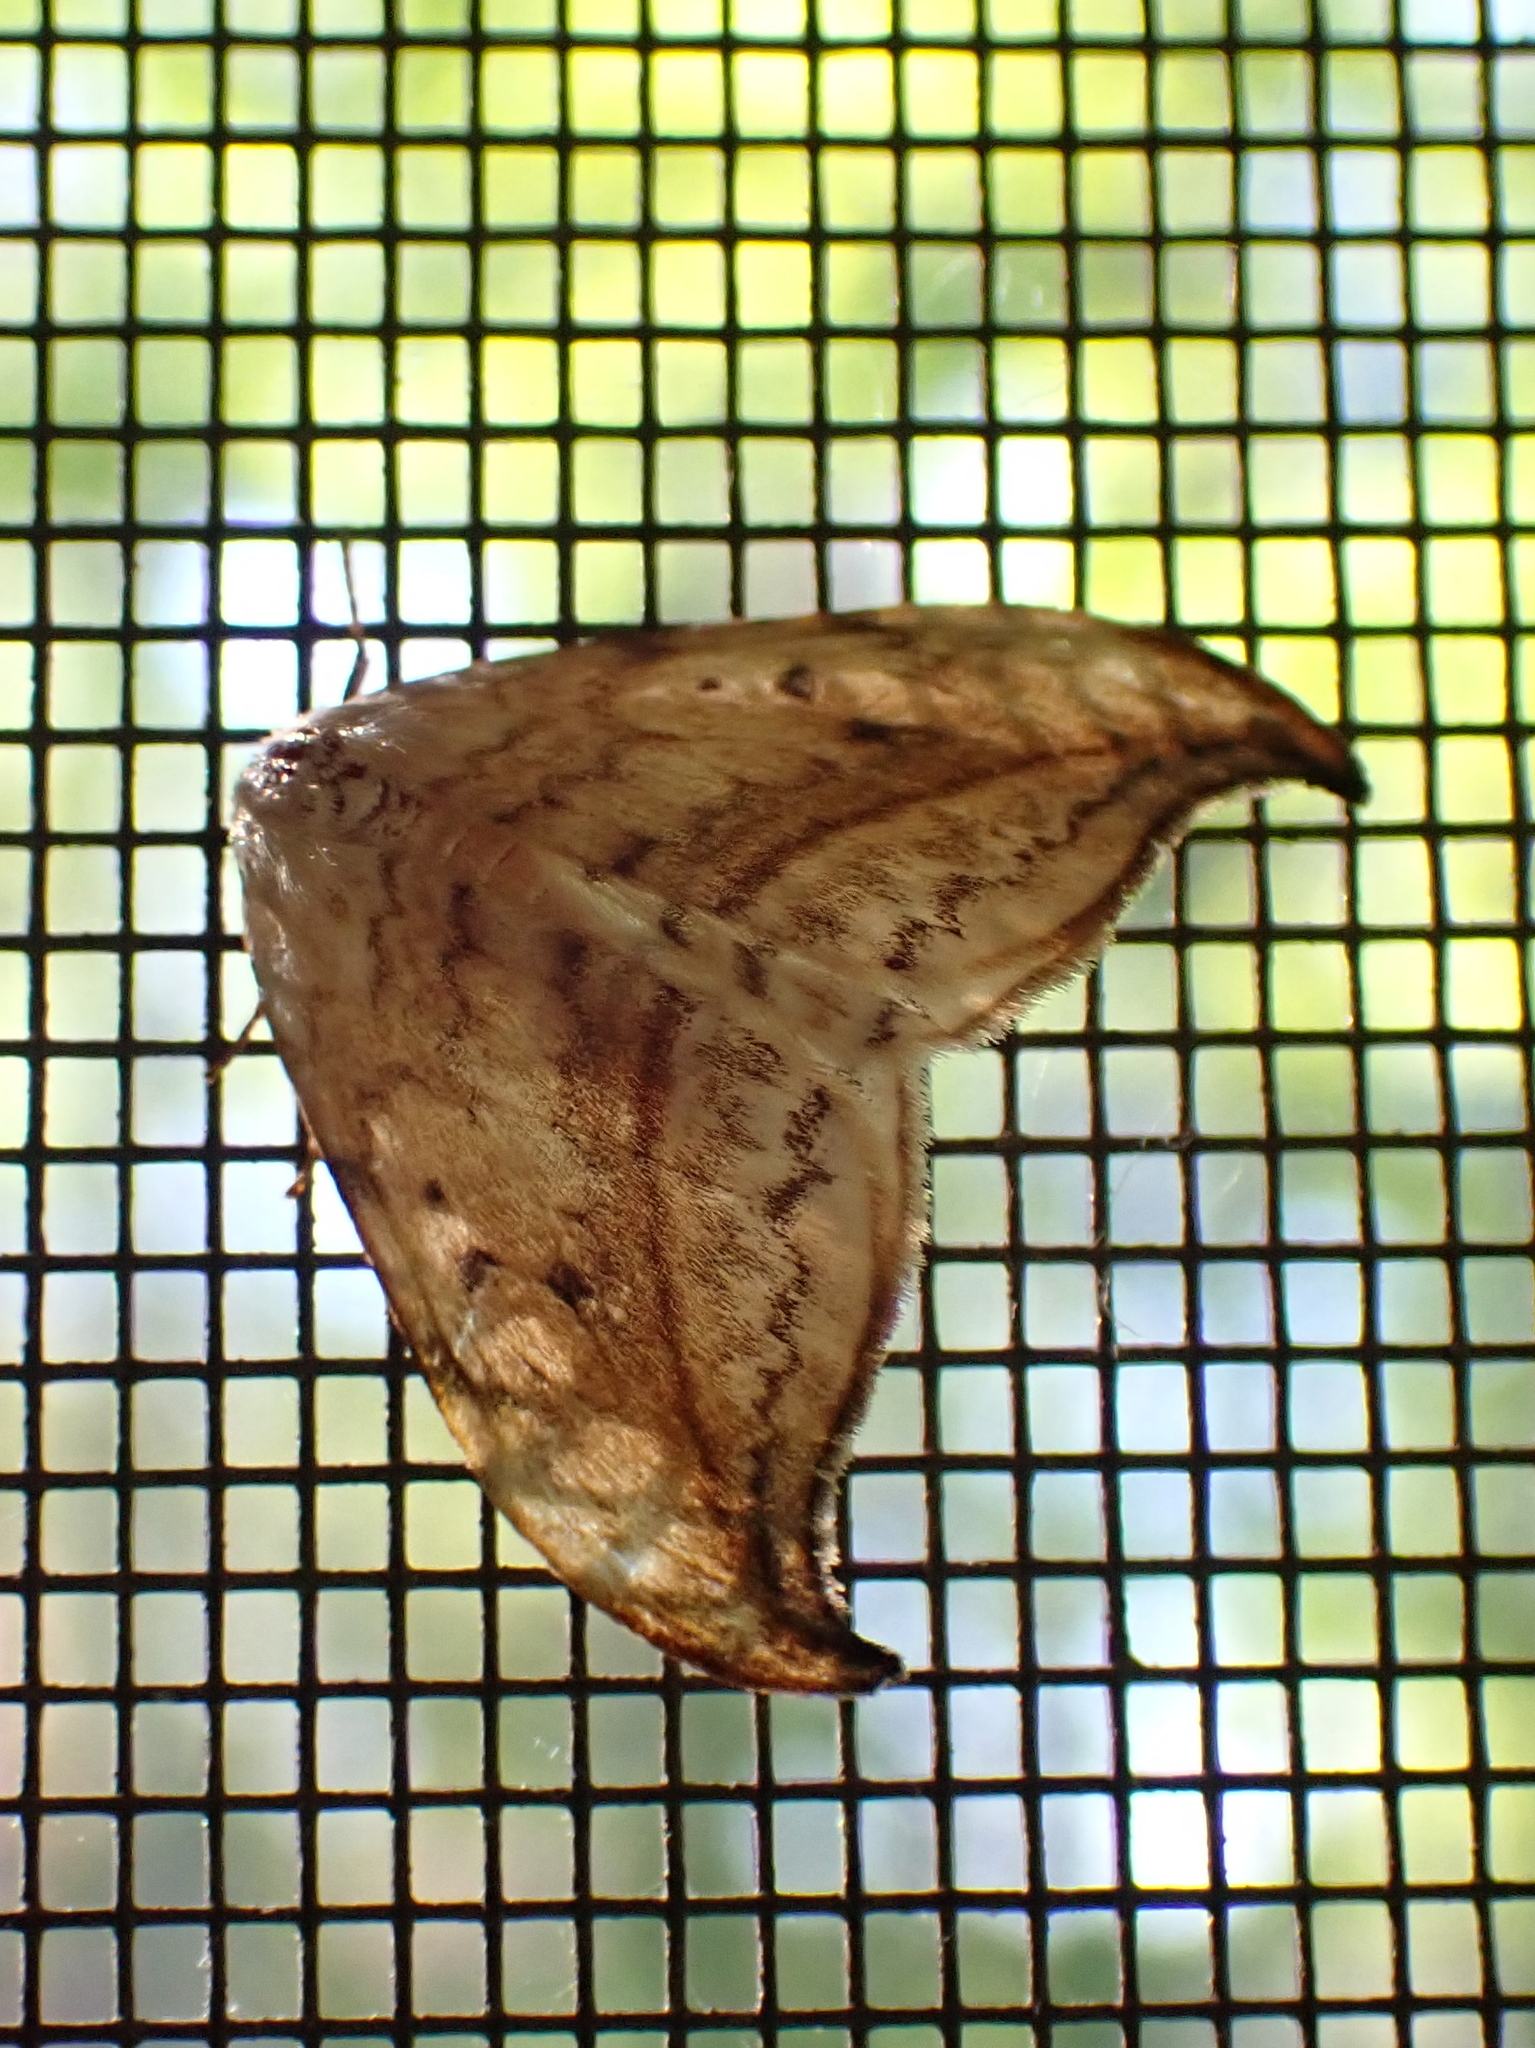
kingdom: Animalia
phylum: Arthropoda
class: Insecta
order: Lepidoptera
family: Drepanidae
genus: Drepana
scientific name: Drepana arcuata
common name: Arched hooktip moth
